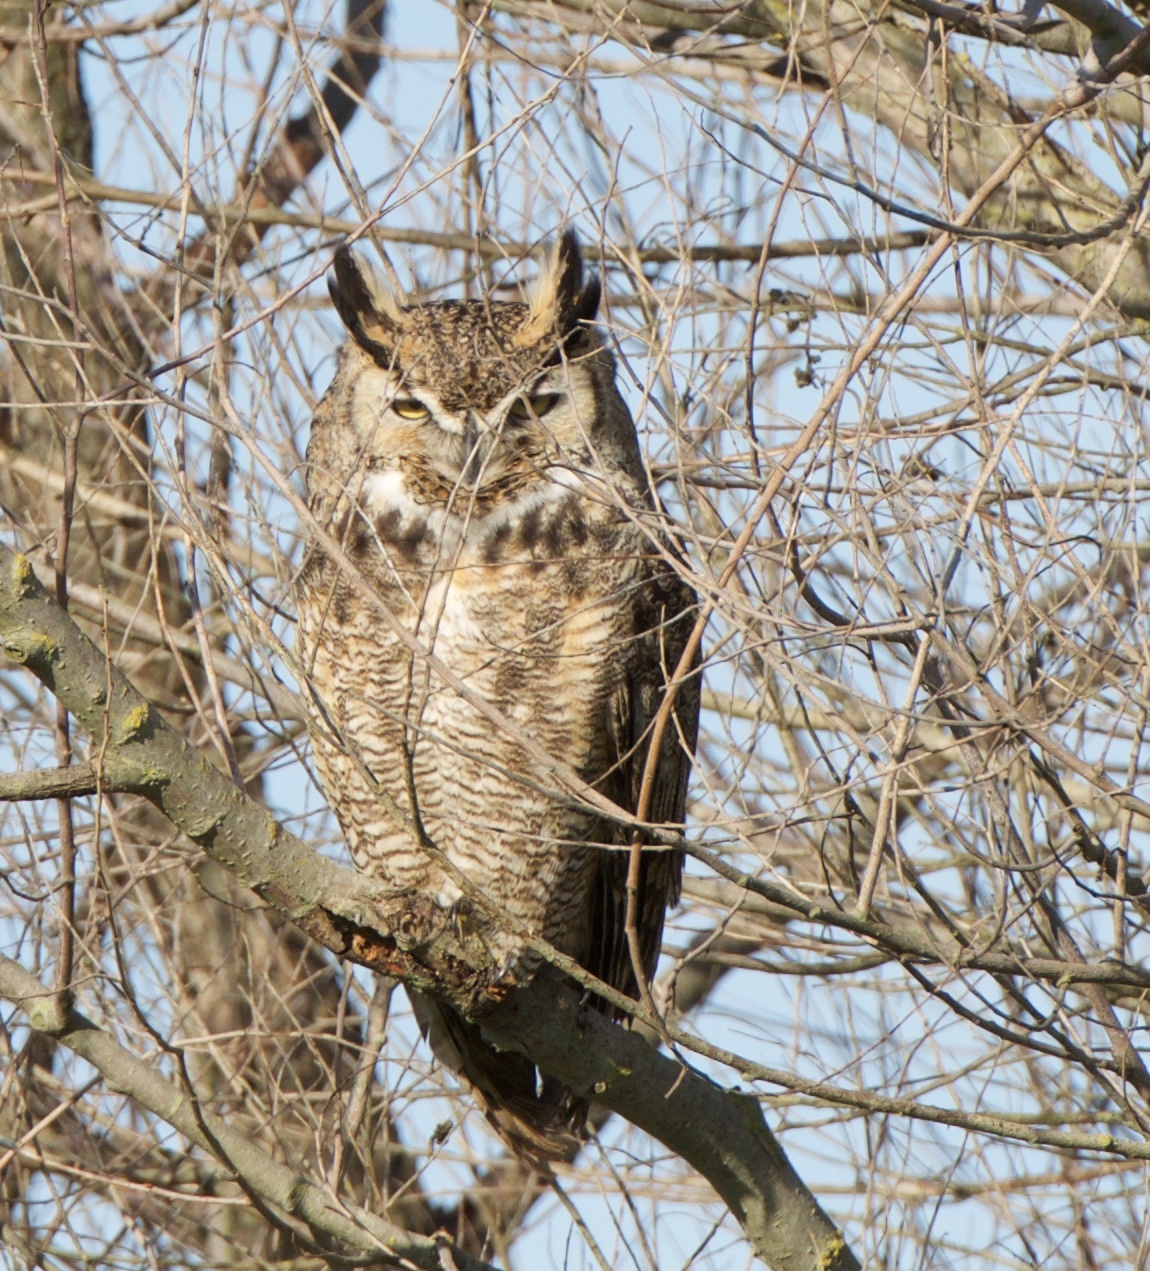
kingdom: Animalia
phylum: Chordata
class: Aves
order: Strigiformes
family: Strigidae
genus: Bubo
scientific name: Bubo virginianus
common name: Great horned owl
